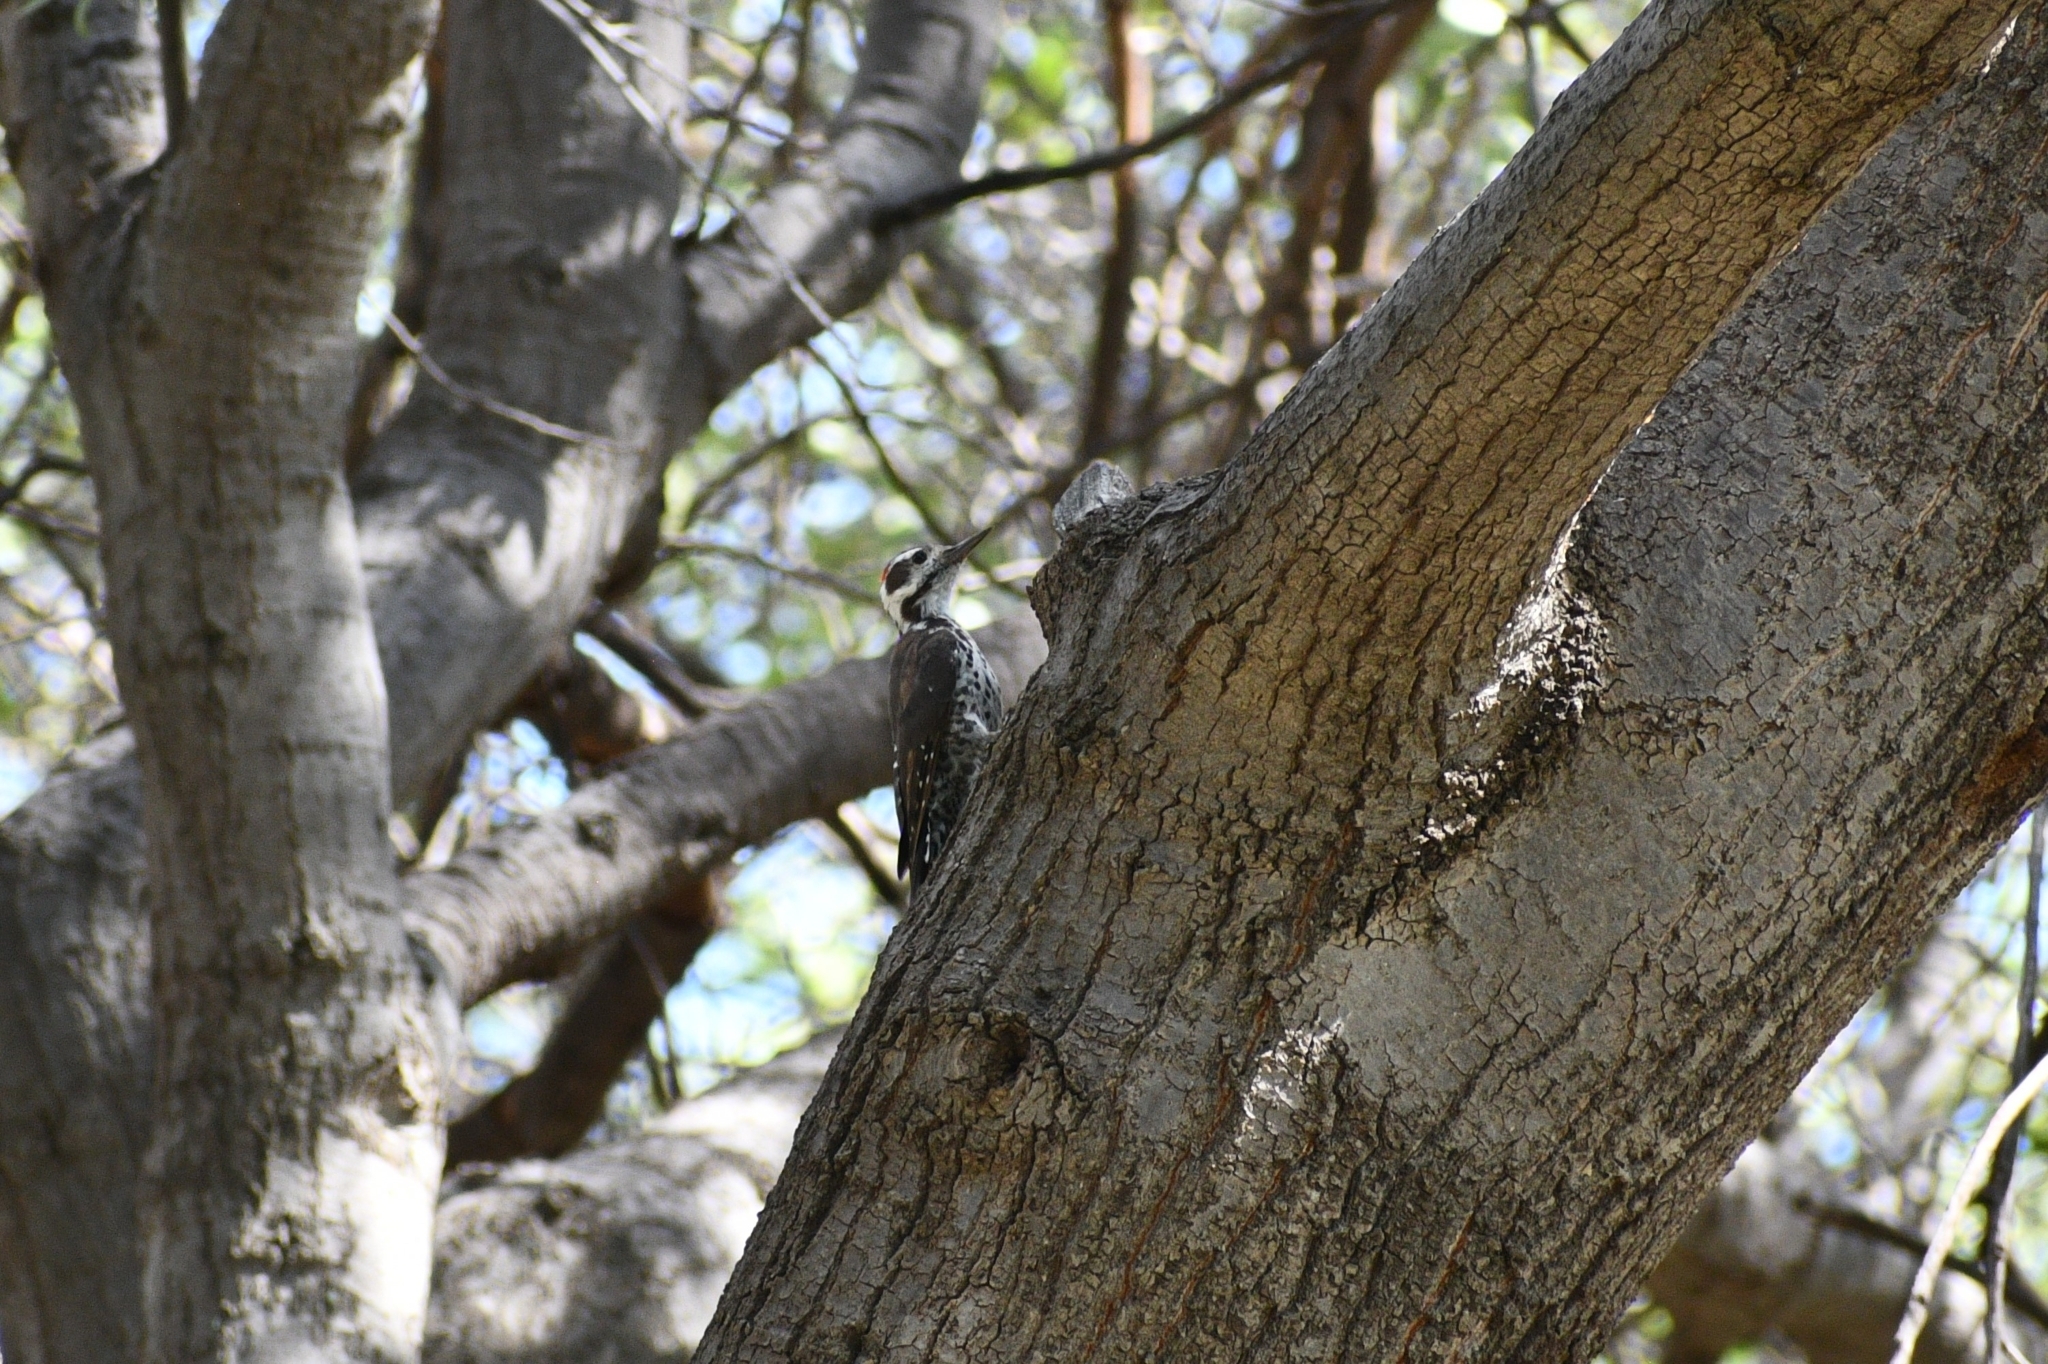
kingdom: Animalia
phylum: Chordata
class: Aves
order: Piciformes
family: Picidae
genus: Leuconotopicus
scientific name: Leuconotopicus arizonae
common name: Arizona woodpecker
